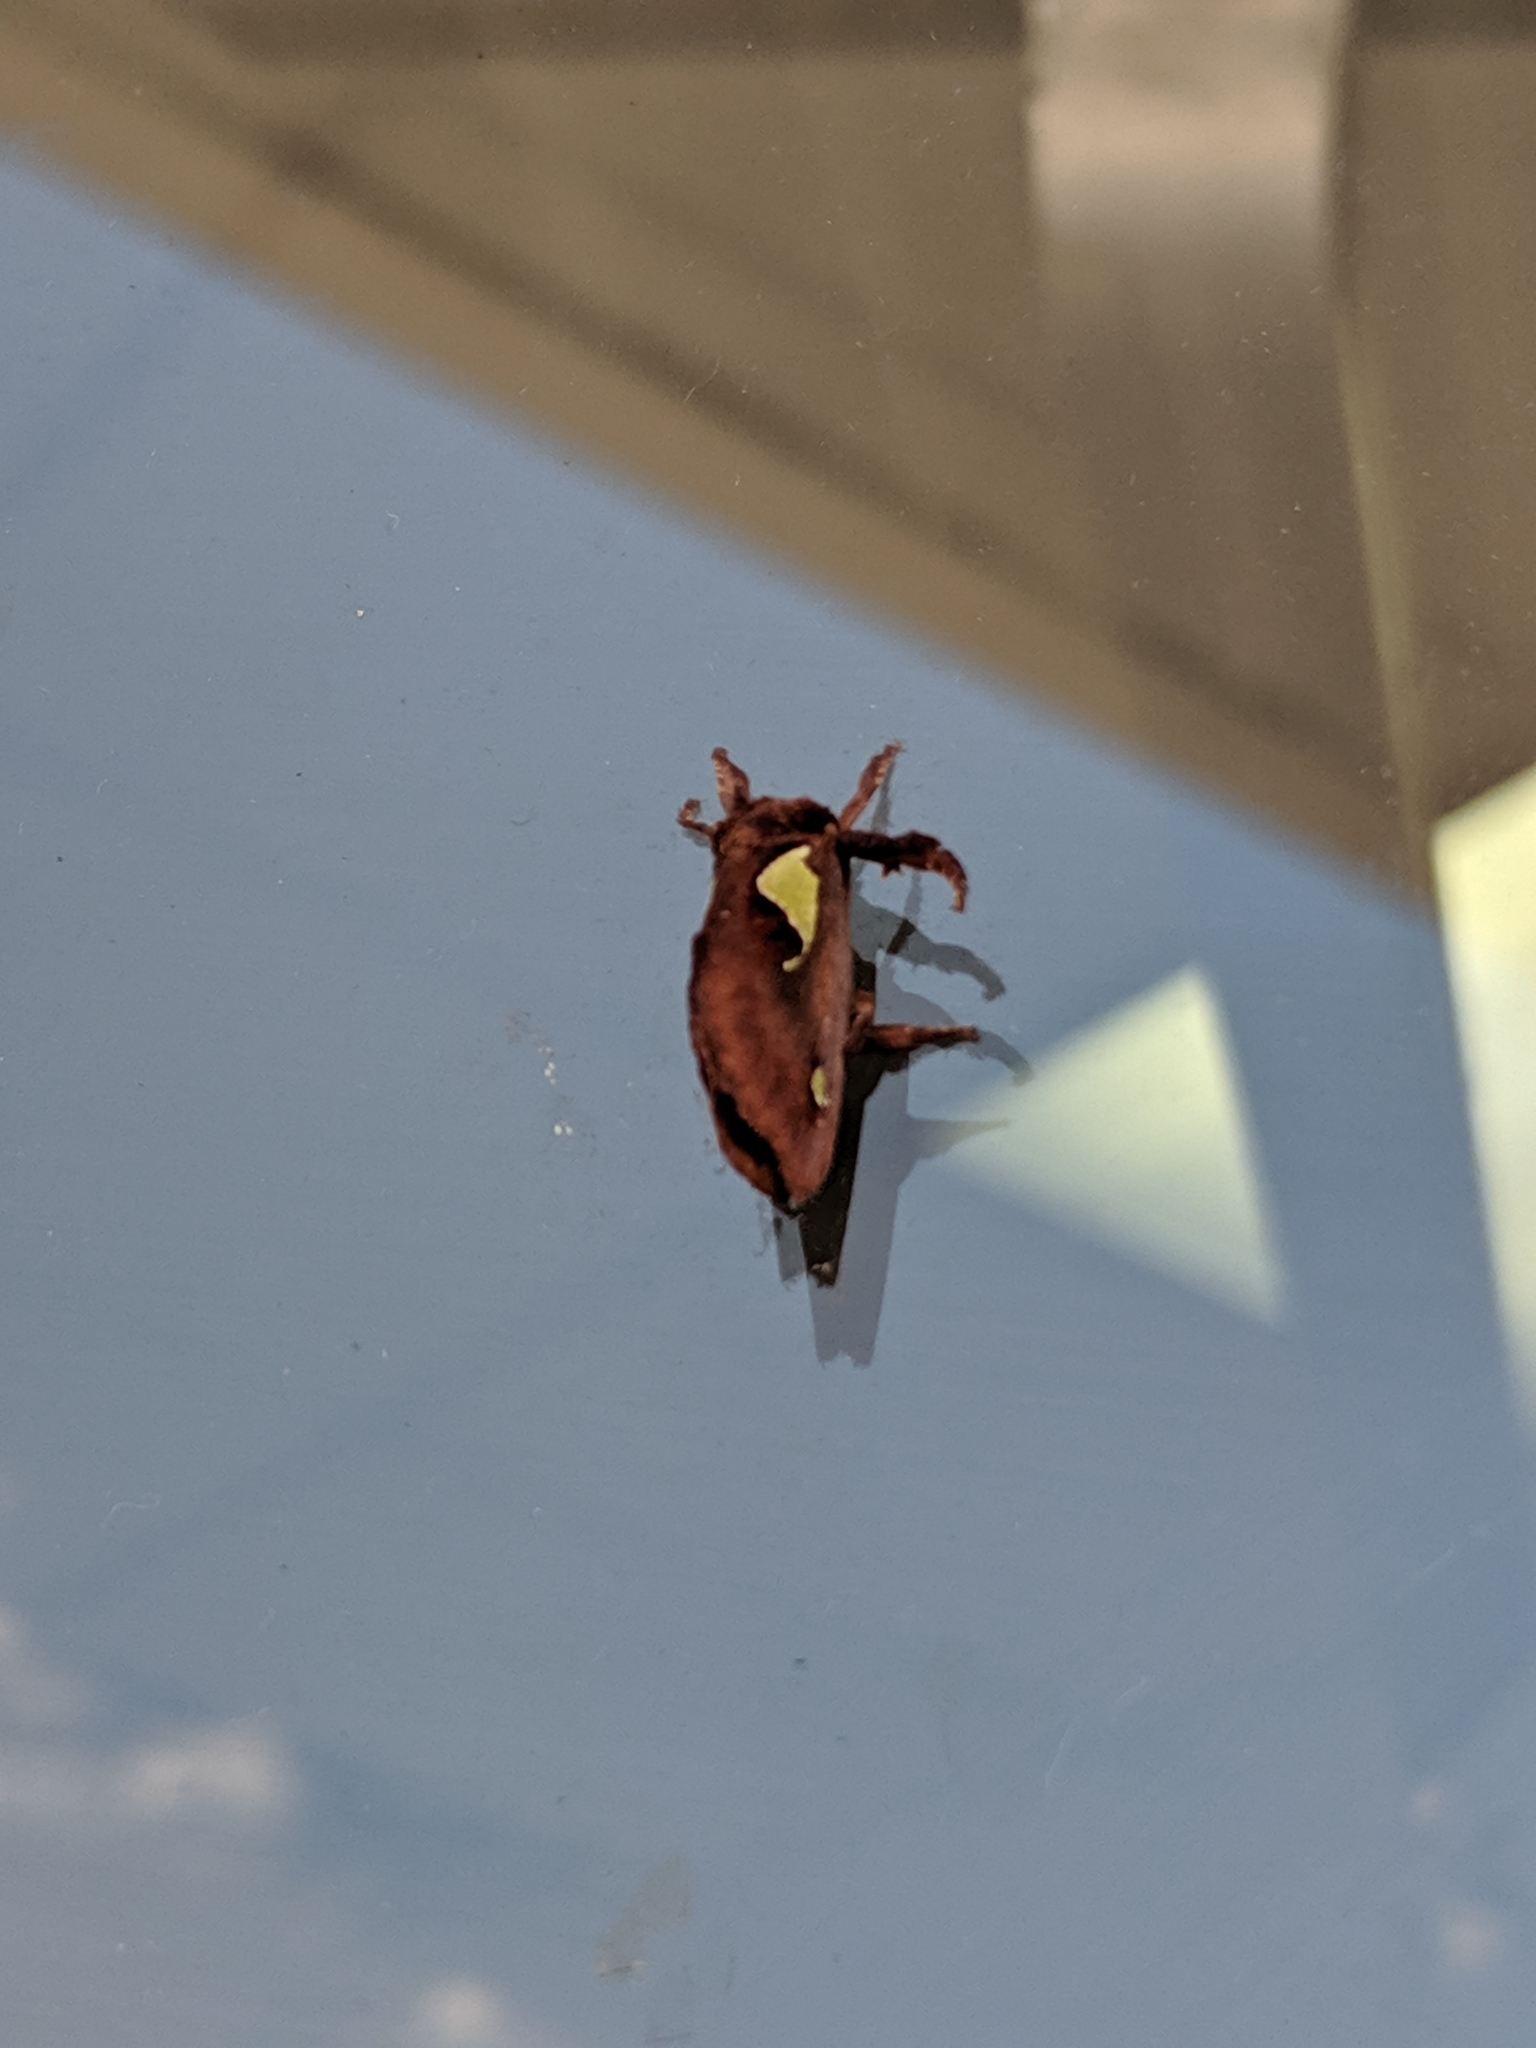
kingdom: Animalia
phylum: Arthropoda
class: Insecta
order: Lepidoptera
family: Limacodidae
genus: Euclea
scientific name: Euclea delphinii
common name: Spiny oak-slug moth
